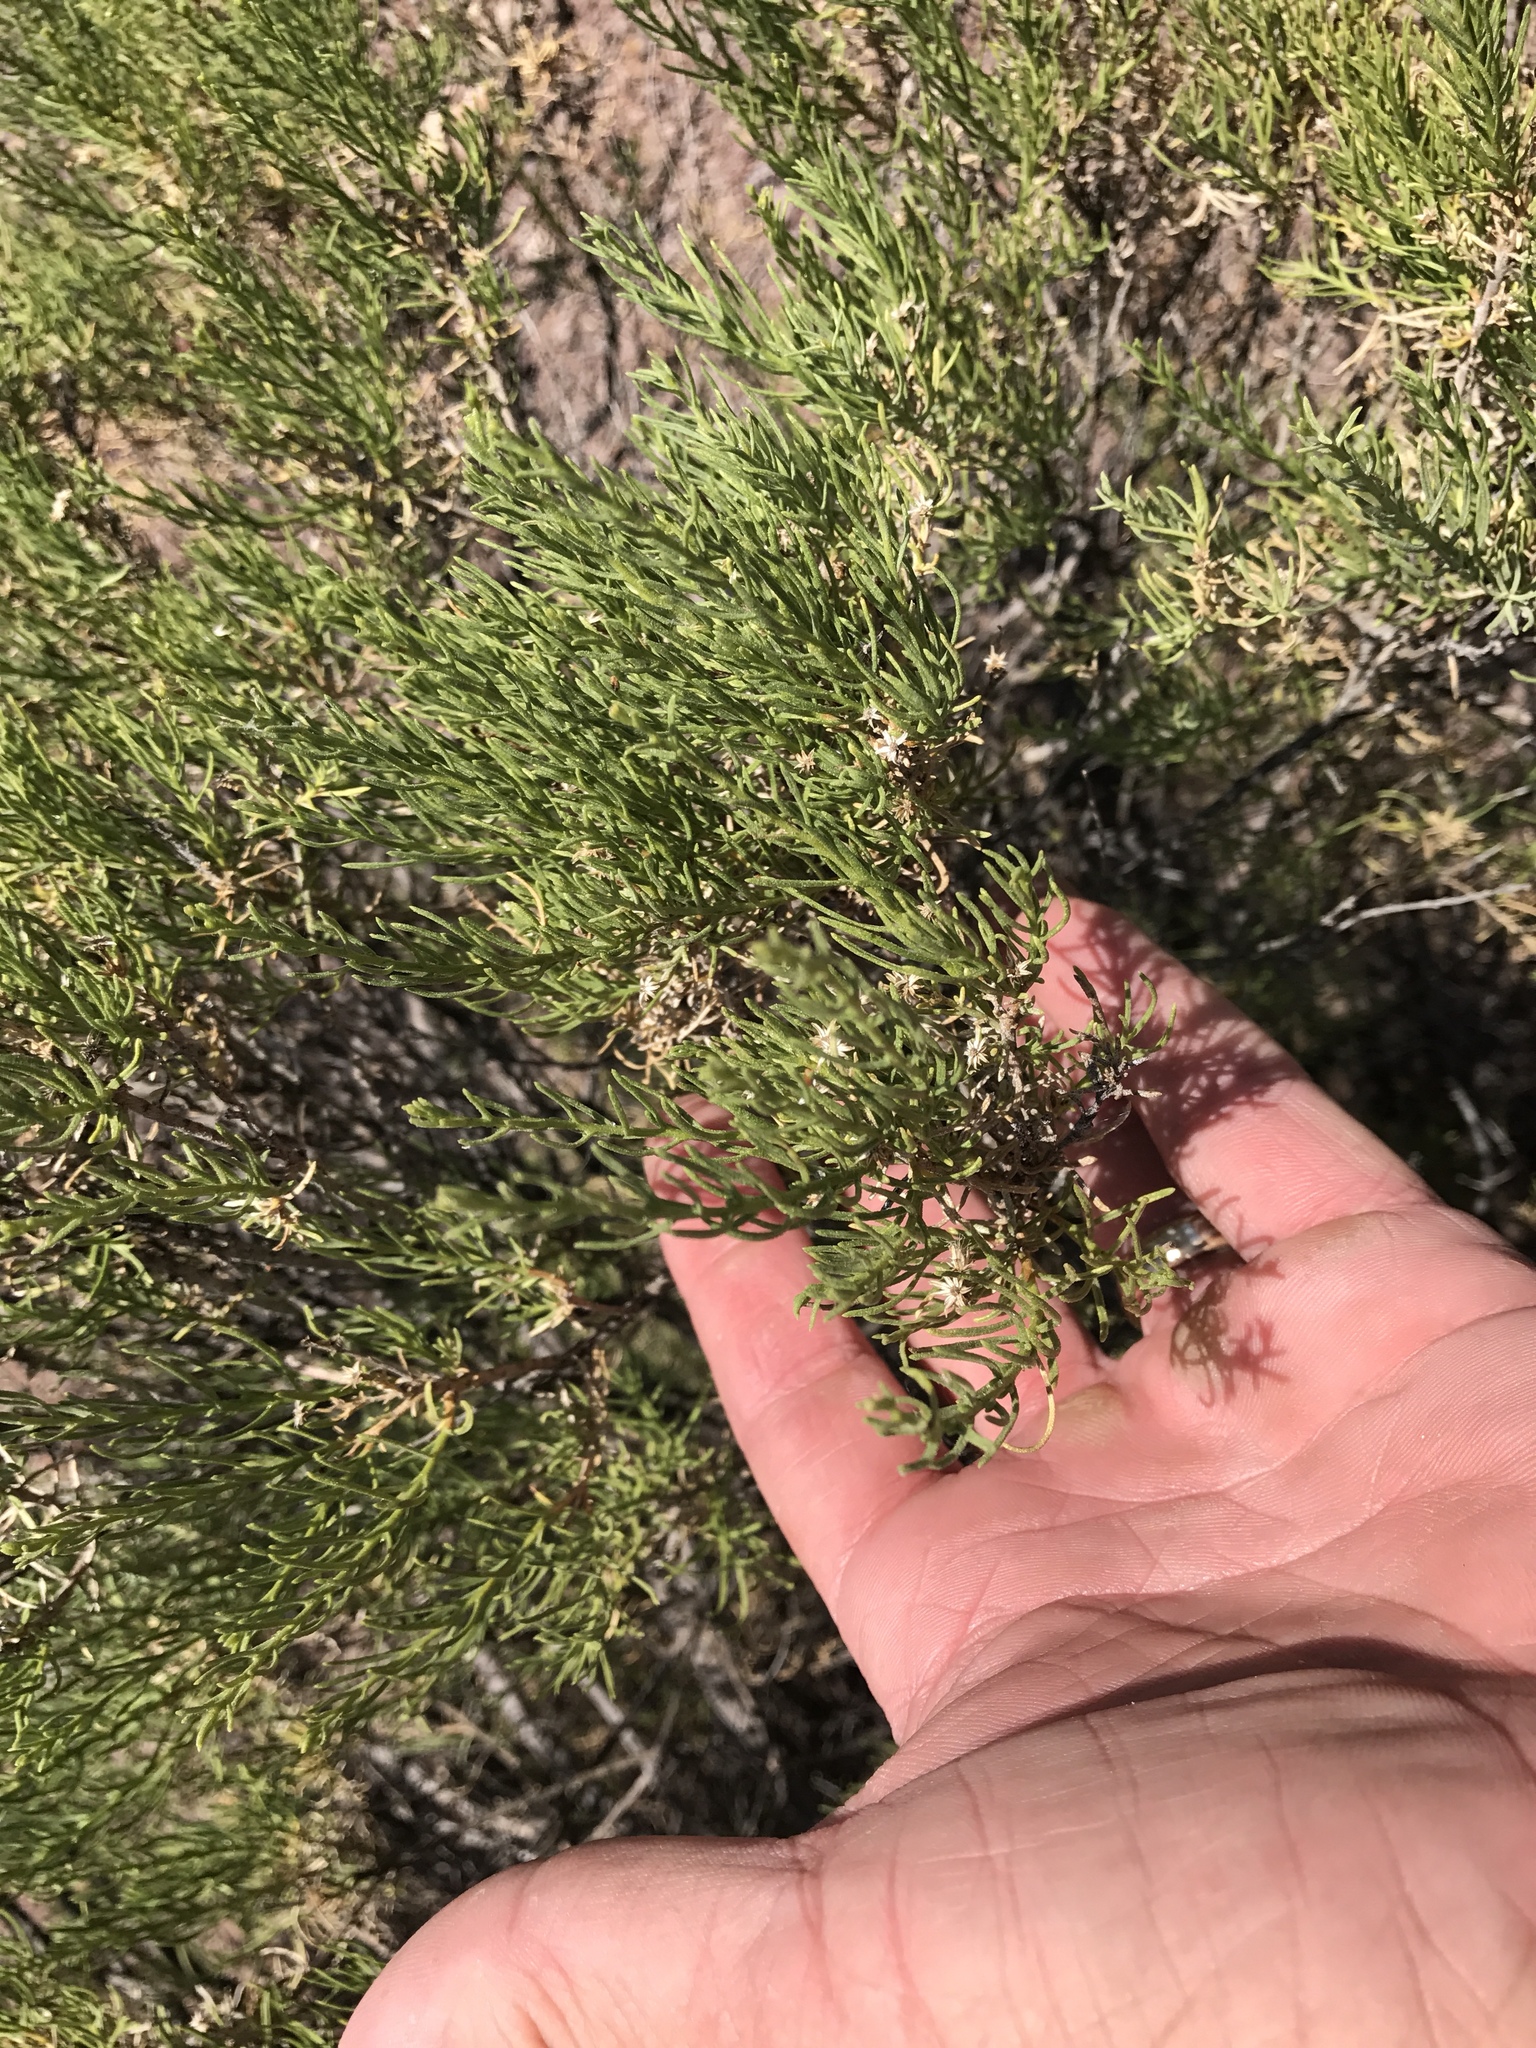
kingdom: Plantae
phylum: Tracheophyta
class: Magnoliopsida
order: Asterales
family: Asteraceae
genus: Ericameria
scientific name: Ericameria laricifolia
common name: Turpentine-bush
